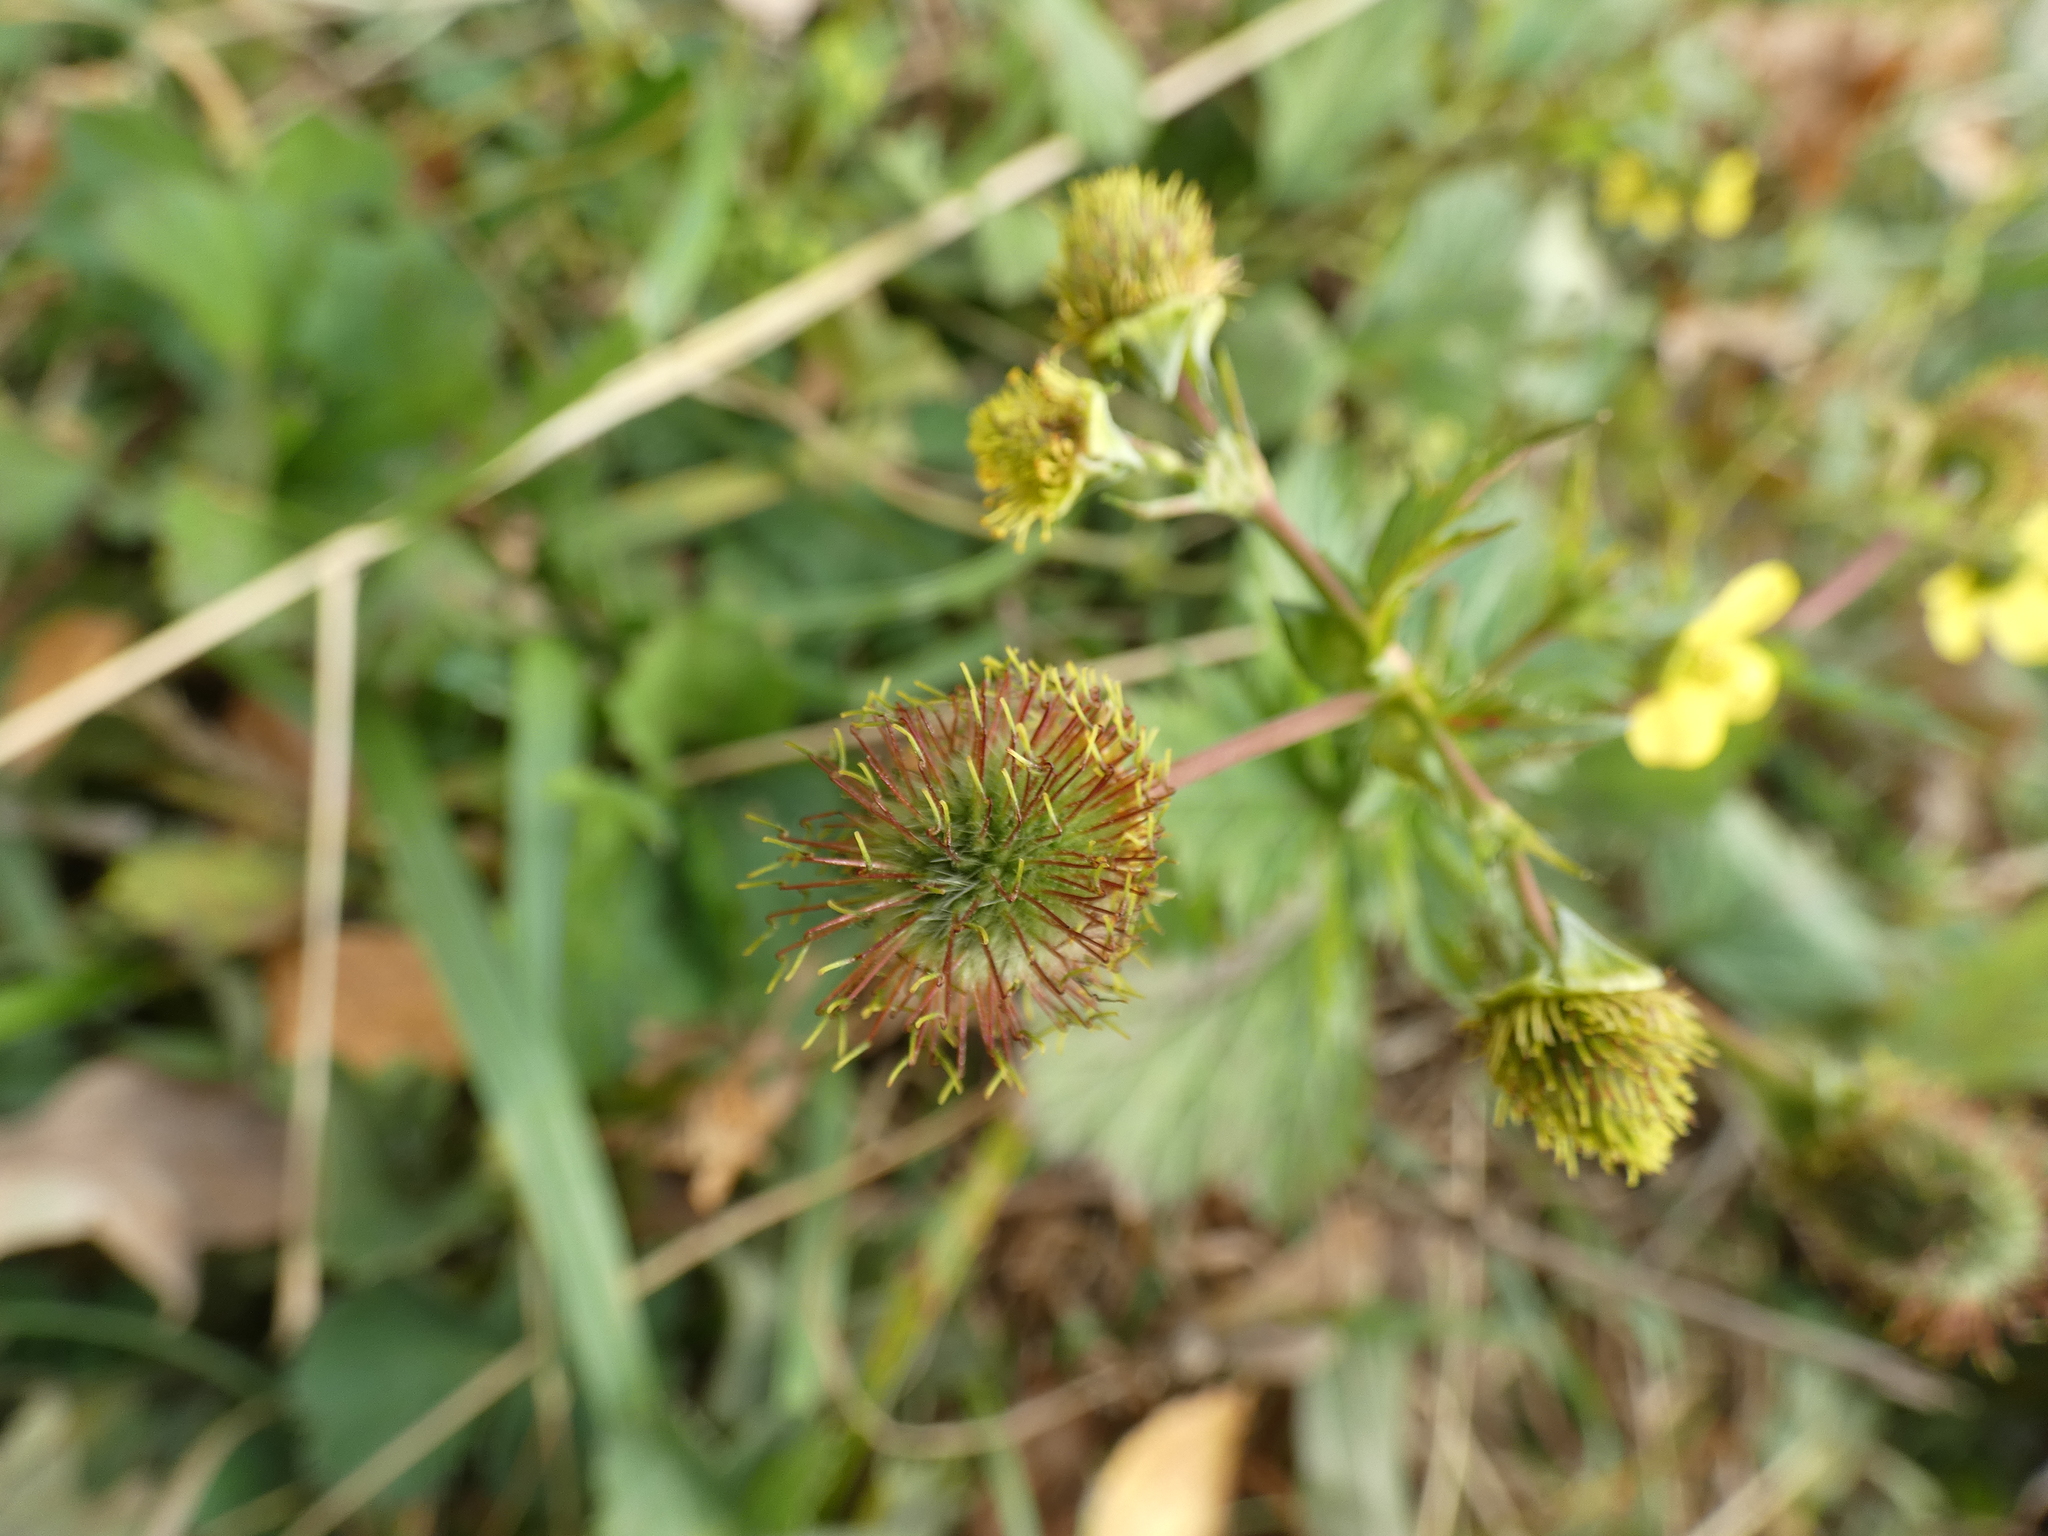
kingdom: Plantae
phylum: Tracheophyta
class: Magnoliopsida
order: Rosales
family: Rosaceae
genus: Geum
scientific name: Geum aleppicum
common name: Yellow avens
